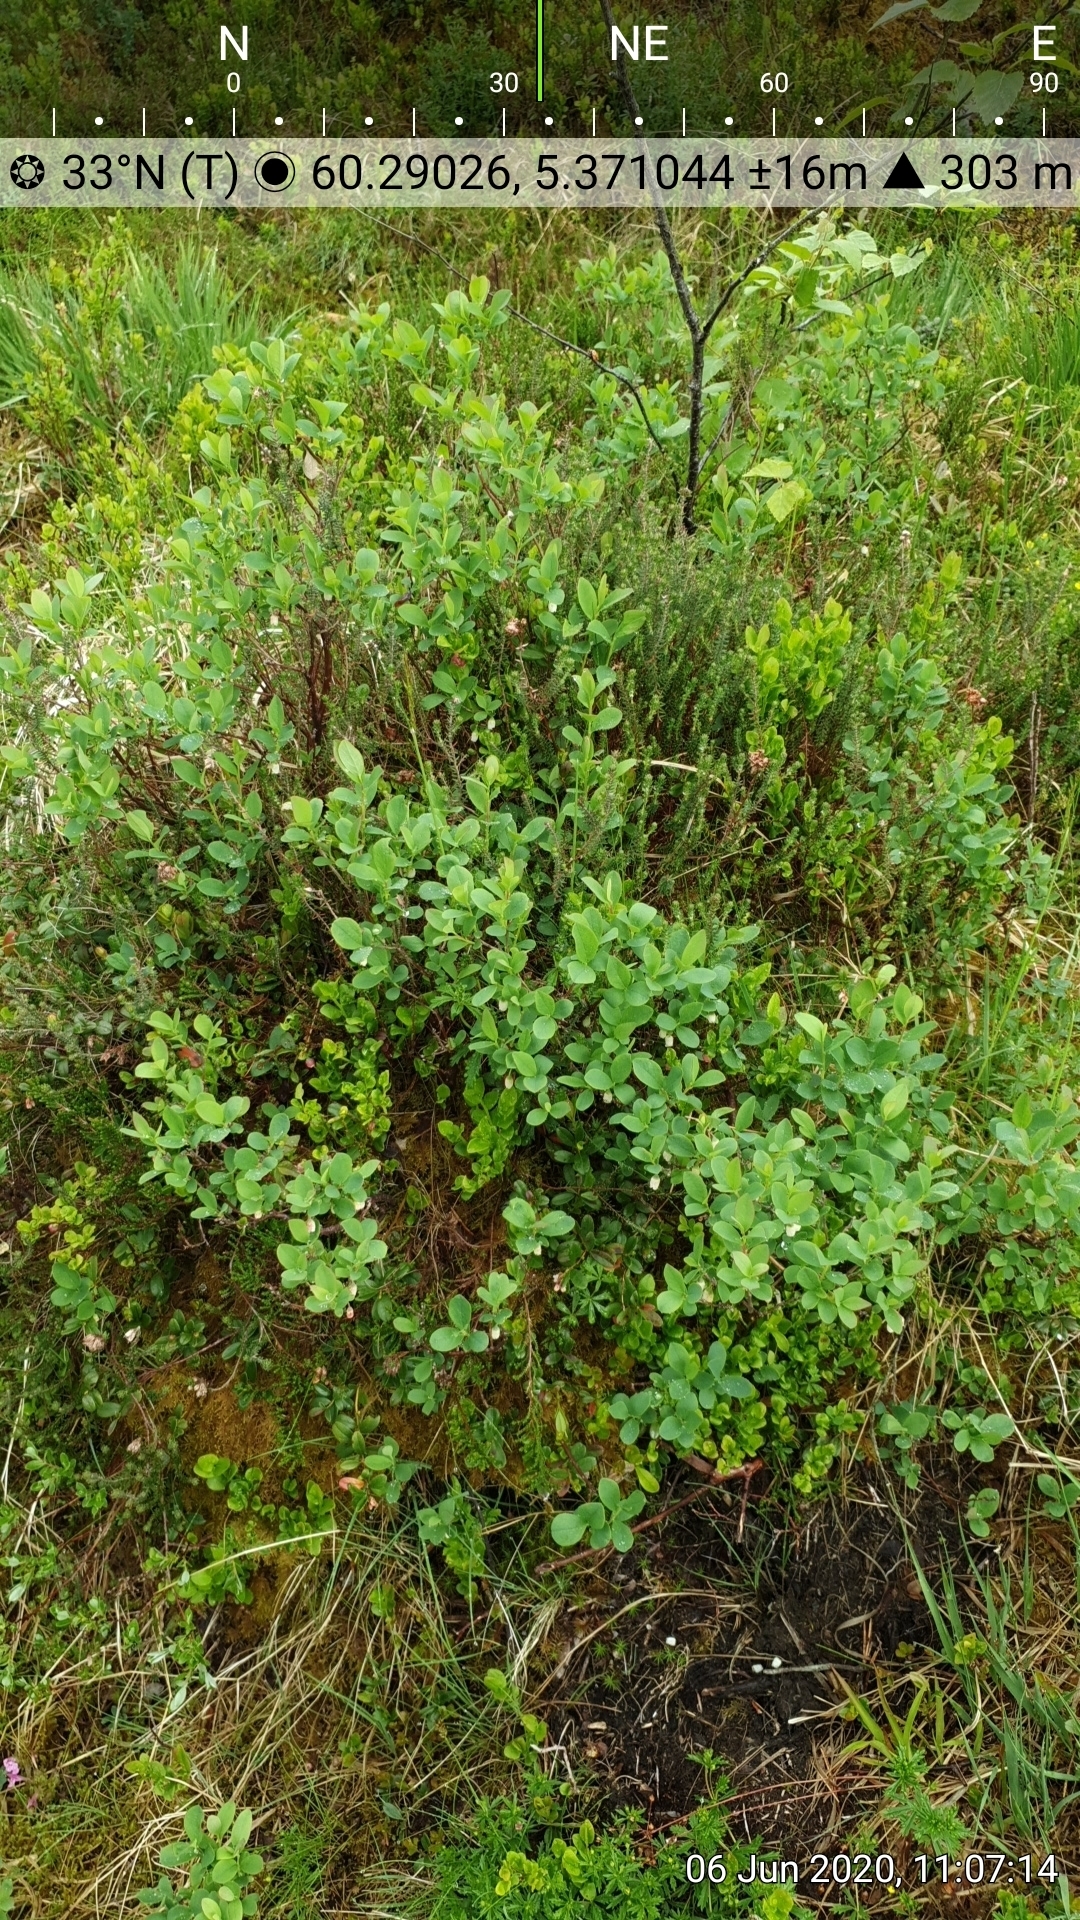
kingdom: Plantae
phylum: Tracheophyta
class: Magnoliopsida
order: Ericales
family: Ericaceae
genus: Vaccinium
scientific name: Vaccinium vitis-idaea
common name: Cowberry
